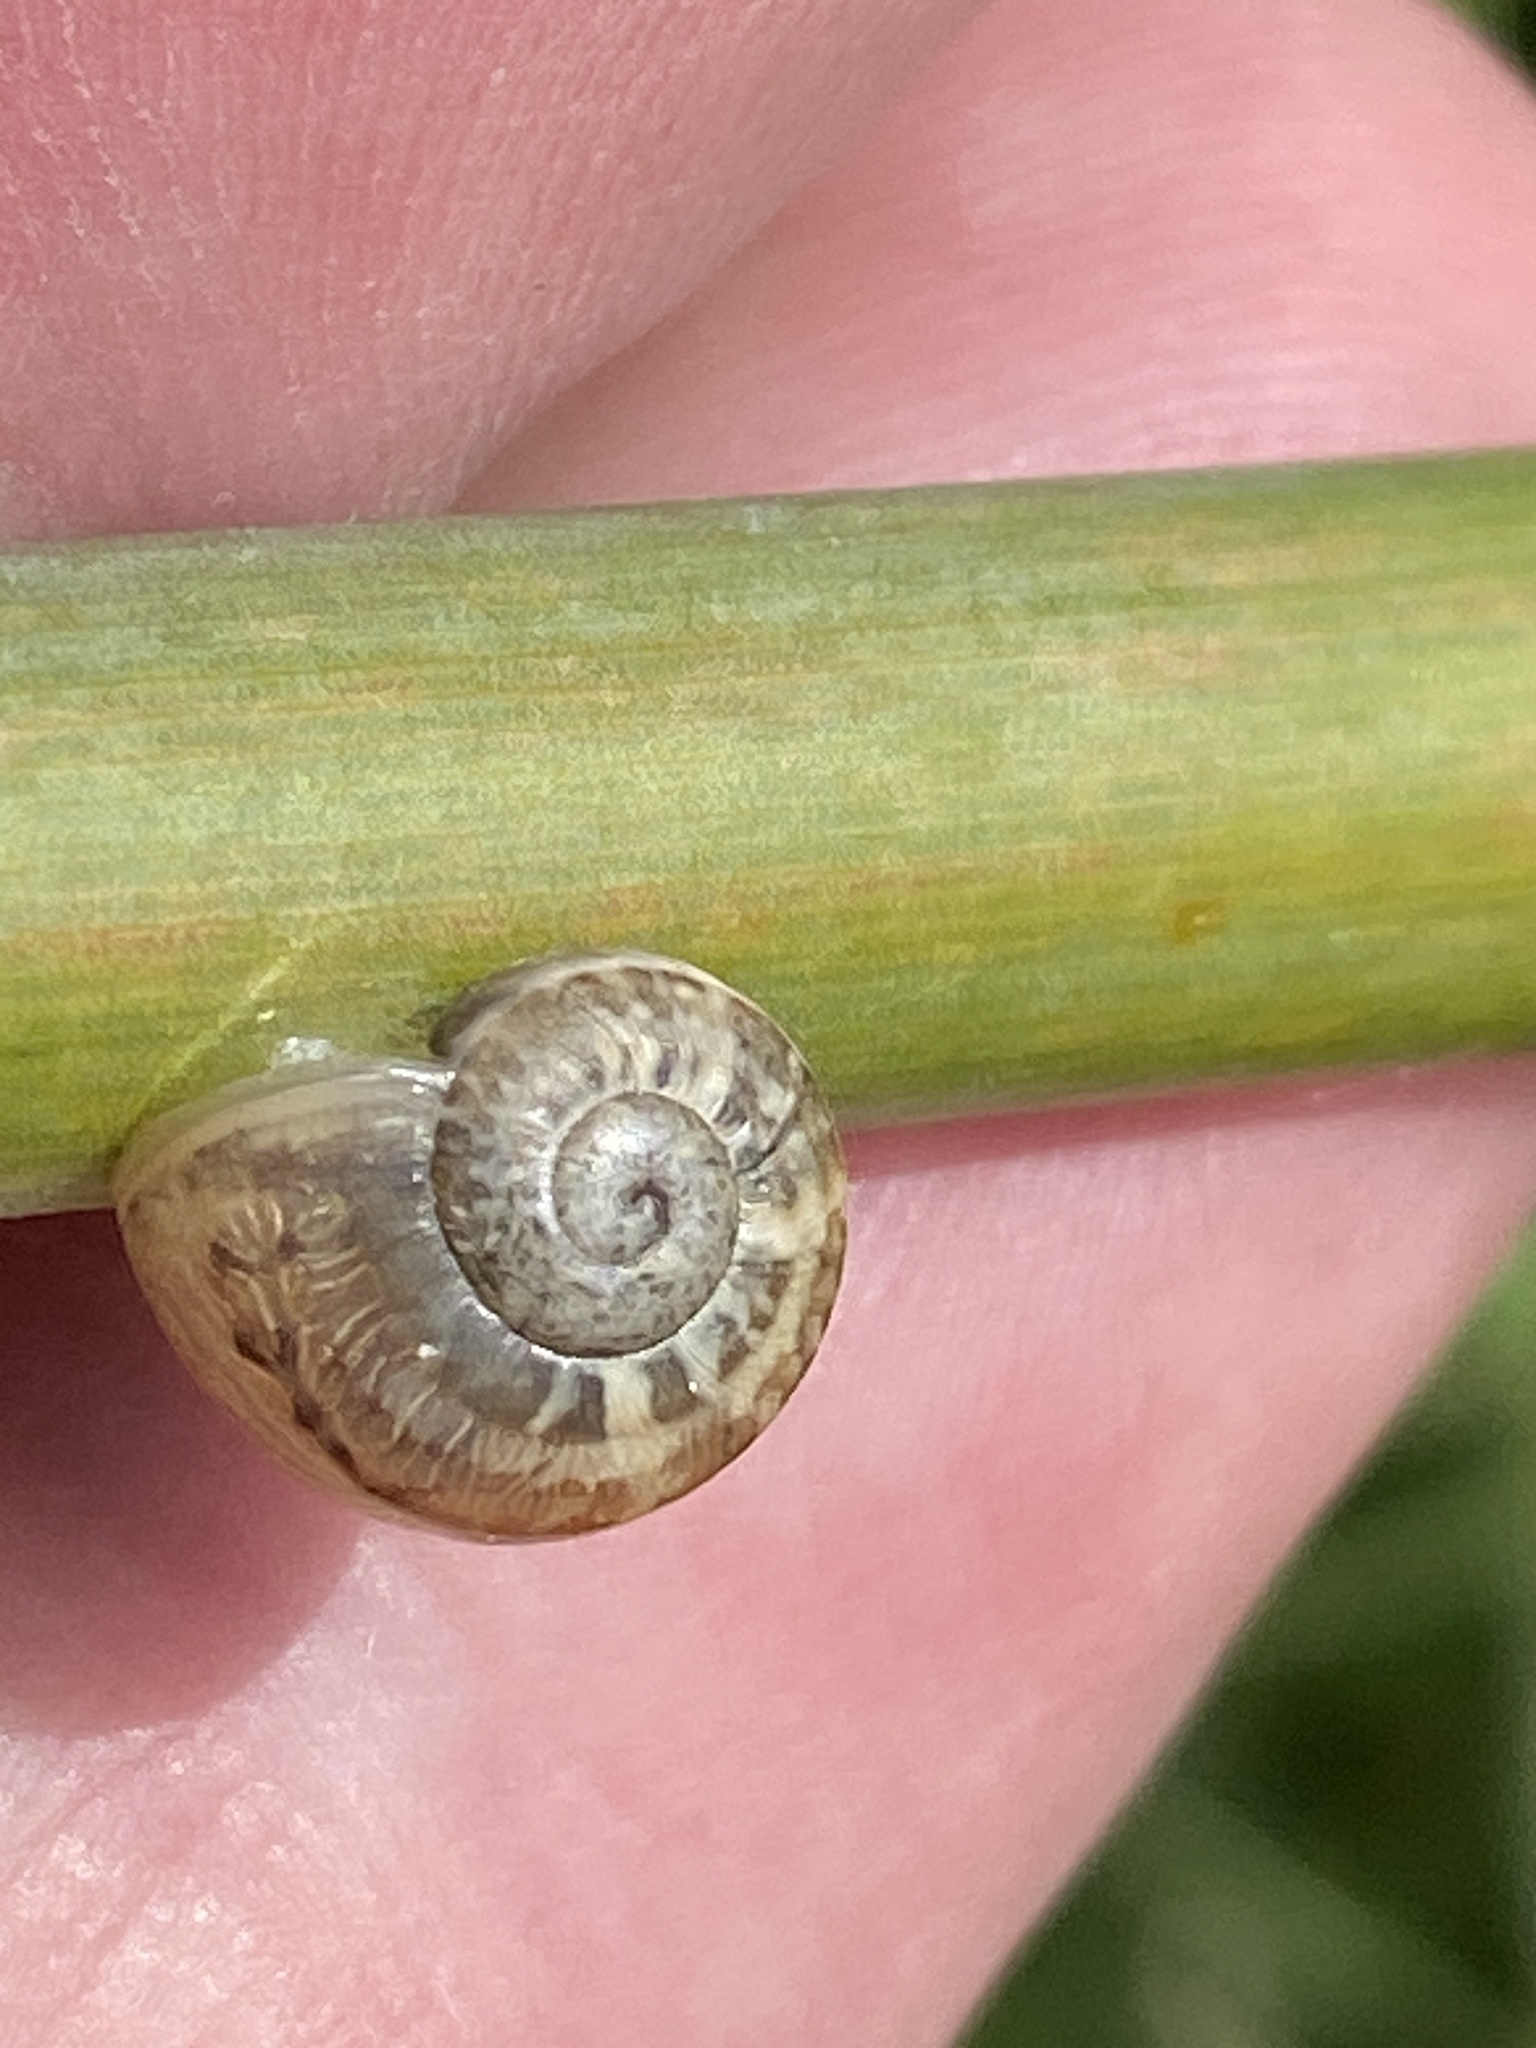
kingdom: Animalia
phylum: Mollusca
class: Gastropoda
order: Stylommatophora
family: Helicidae
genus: Eobania
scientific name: Eobania vermiculata
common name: Chocolateband snail
